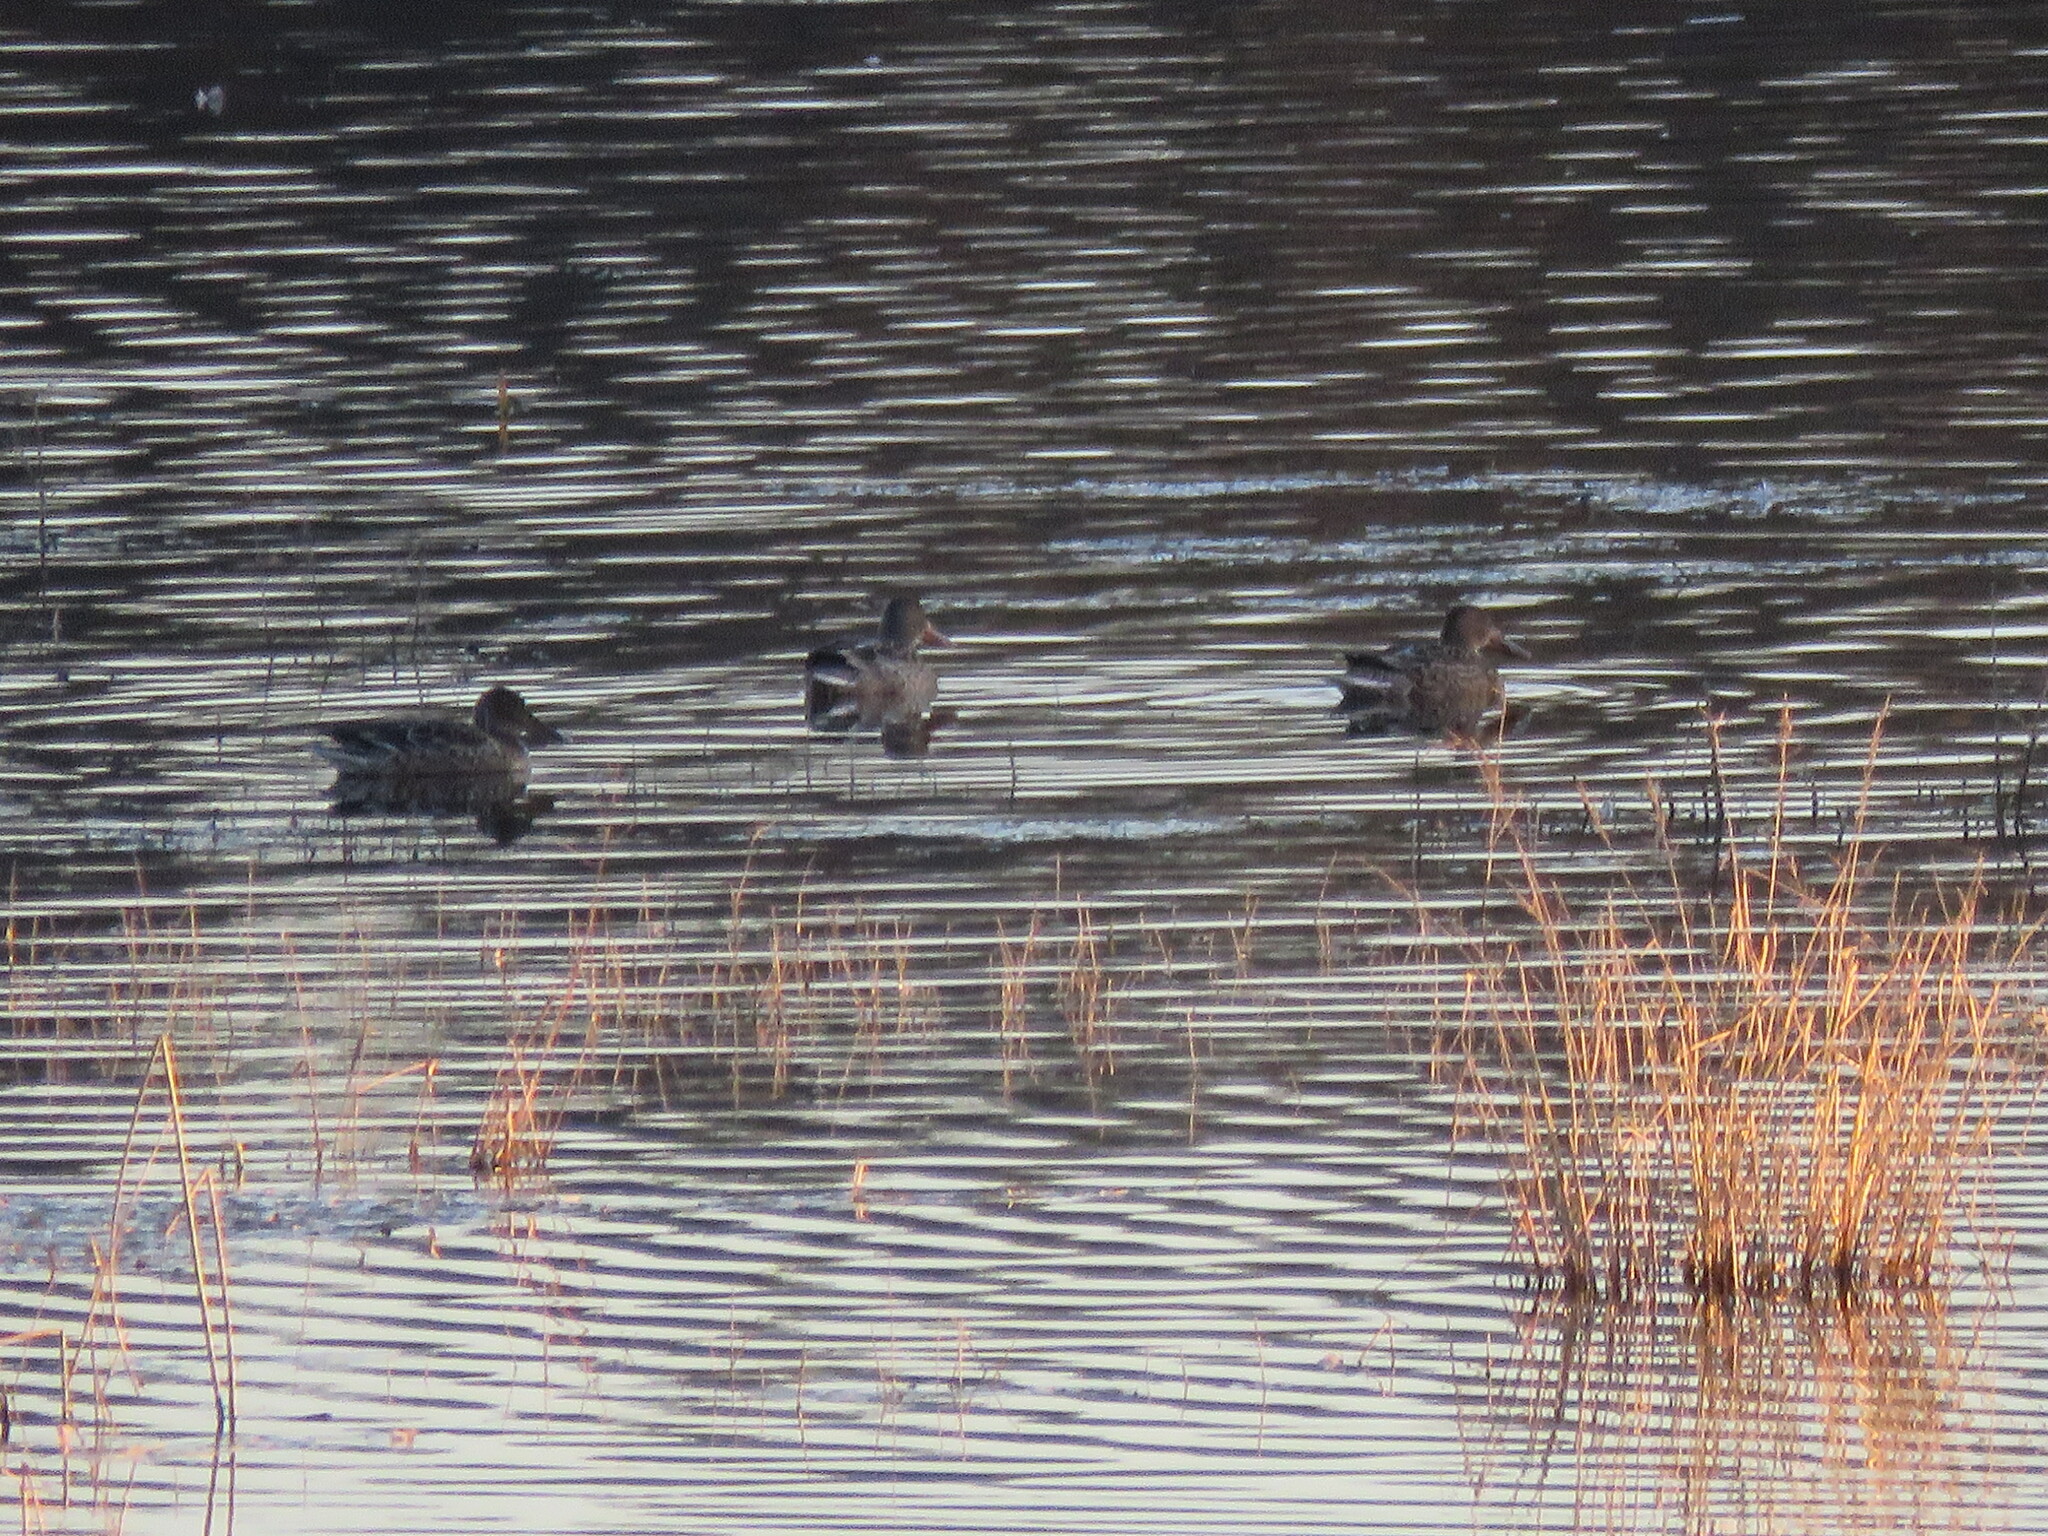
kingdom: Animalia
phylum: Chordata
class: Aves
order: Anseriformes
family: Anatidae
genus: Spatula
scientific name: Spatula clypeata
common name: Northern shoveler
